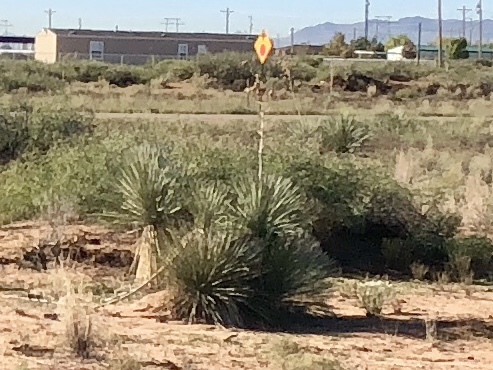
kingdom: Plantae
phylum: Tracheophyta
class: Liliopsida
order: Asparagales
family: Asparagaceae
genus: Yucca
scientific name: Yucca elata
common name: Palmella
